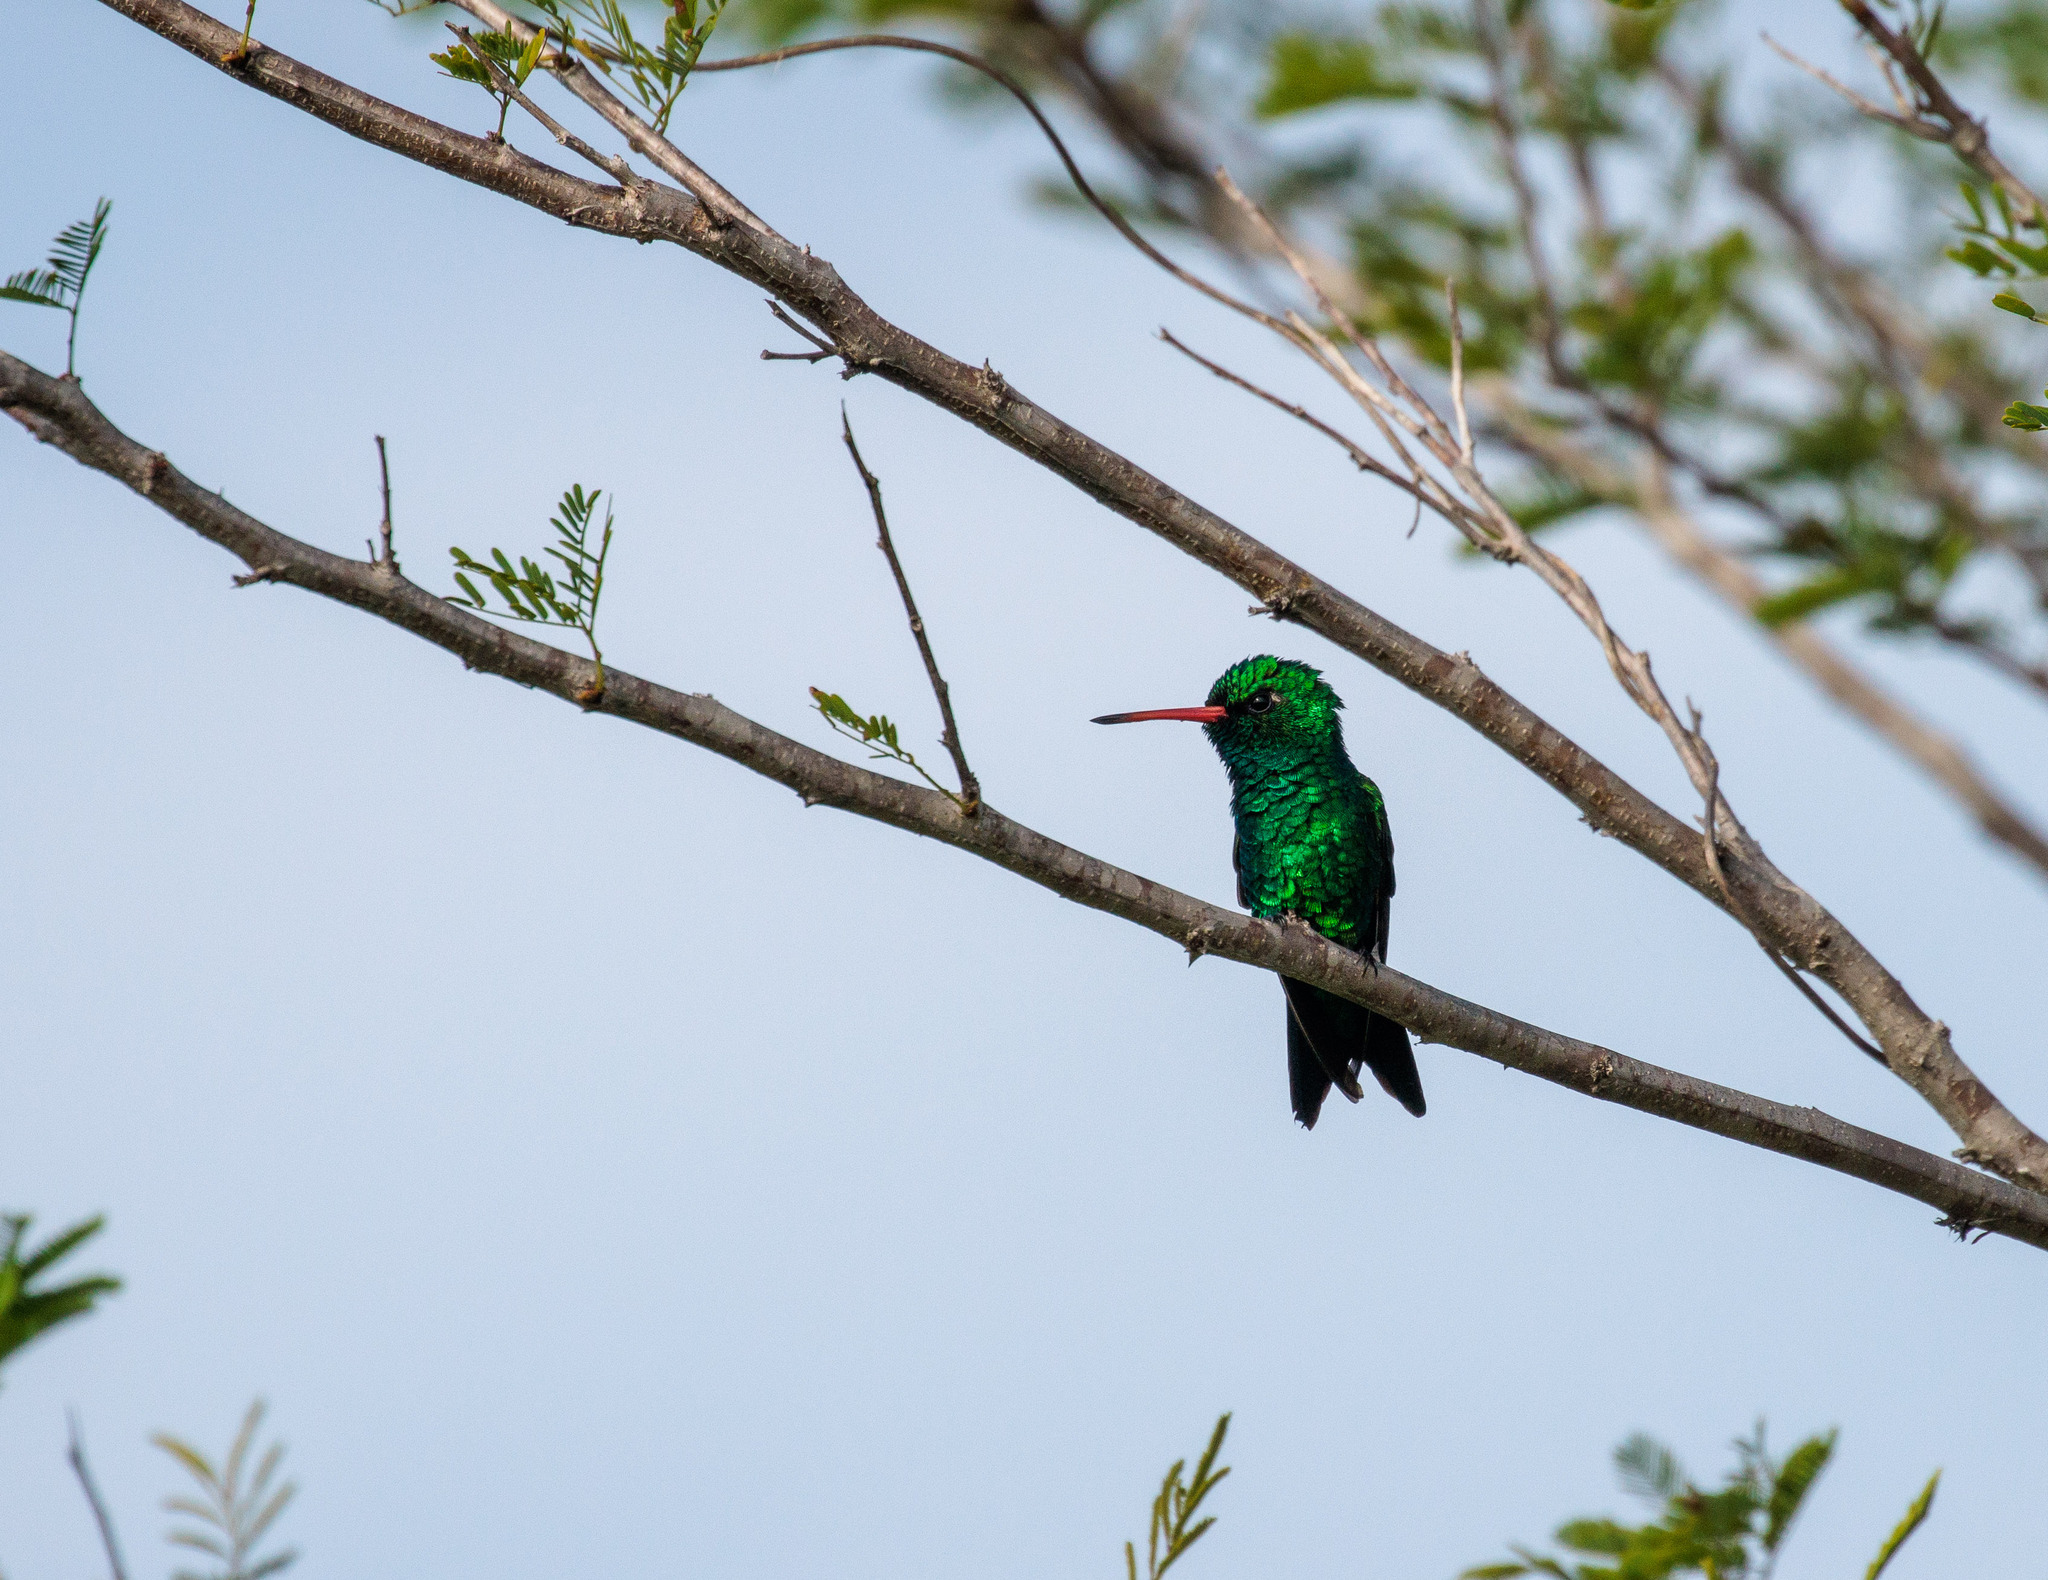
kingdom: Animalia
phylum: Chordata
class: Aves
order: Apodiformes
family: Trochilidae
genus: Chlorostilbon
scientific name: Chlorostilbon lucidus
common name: Glittering-bellied emerald
